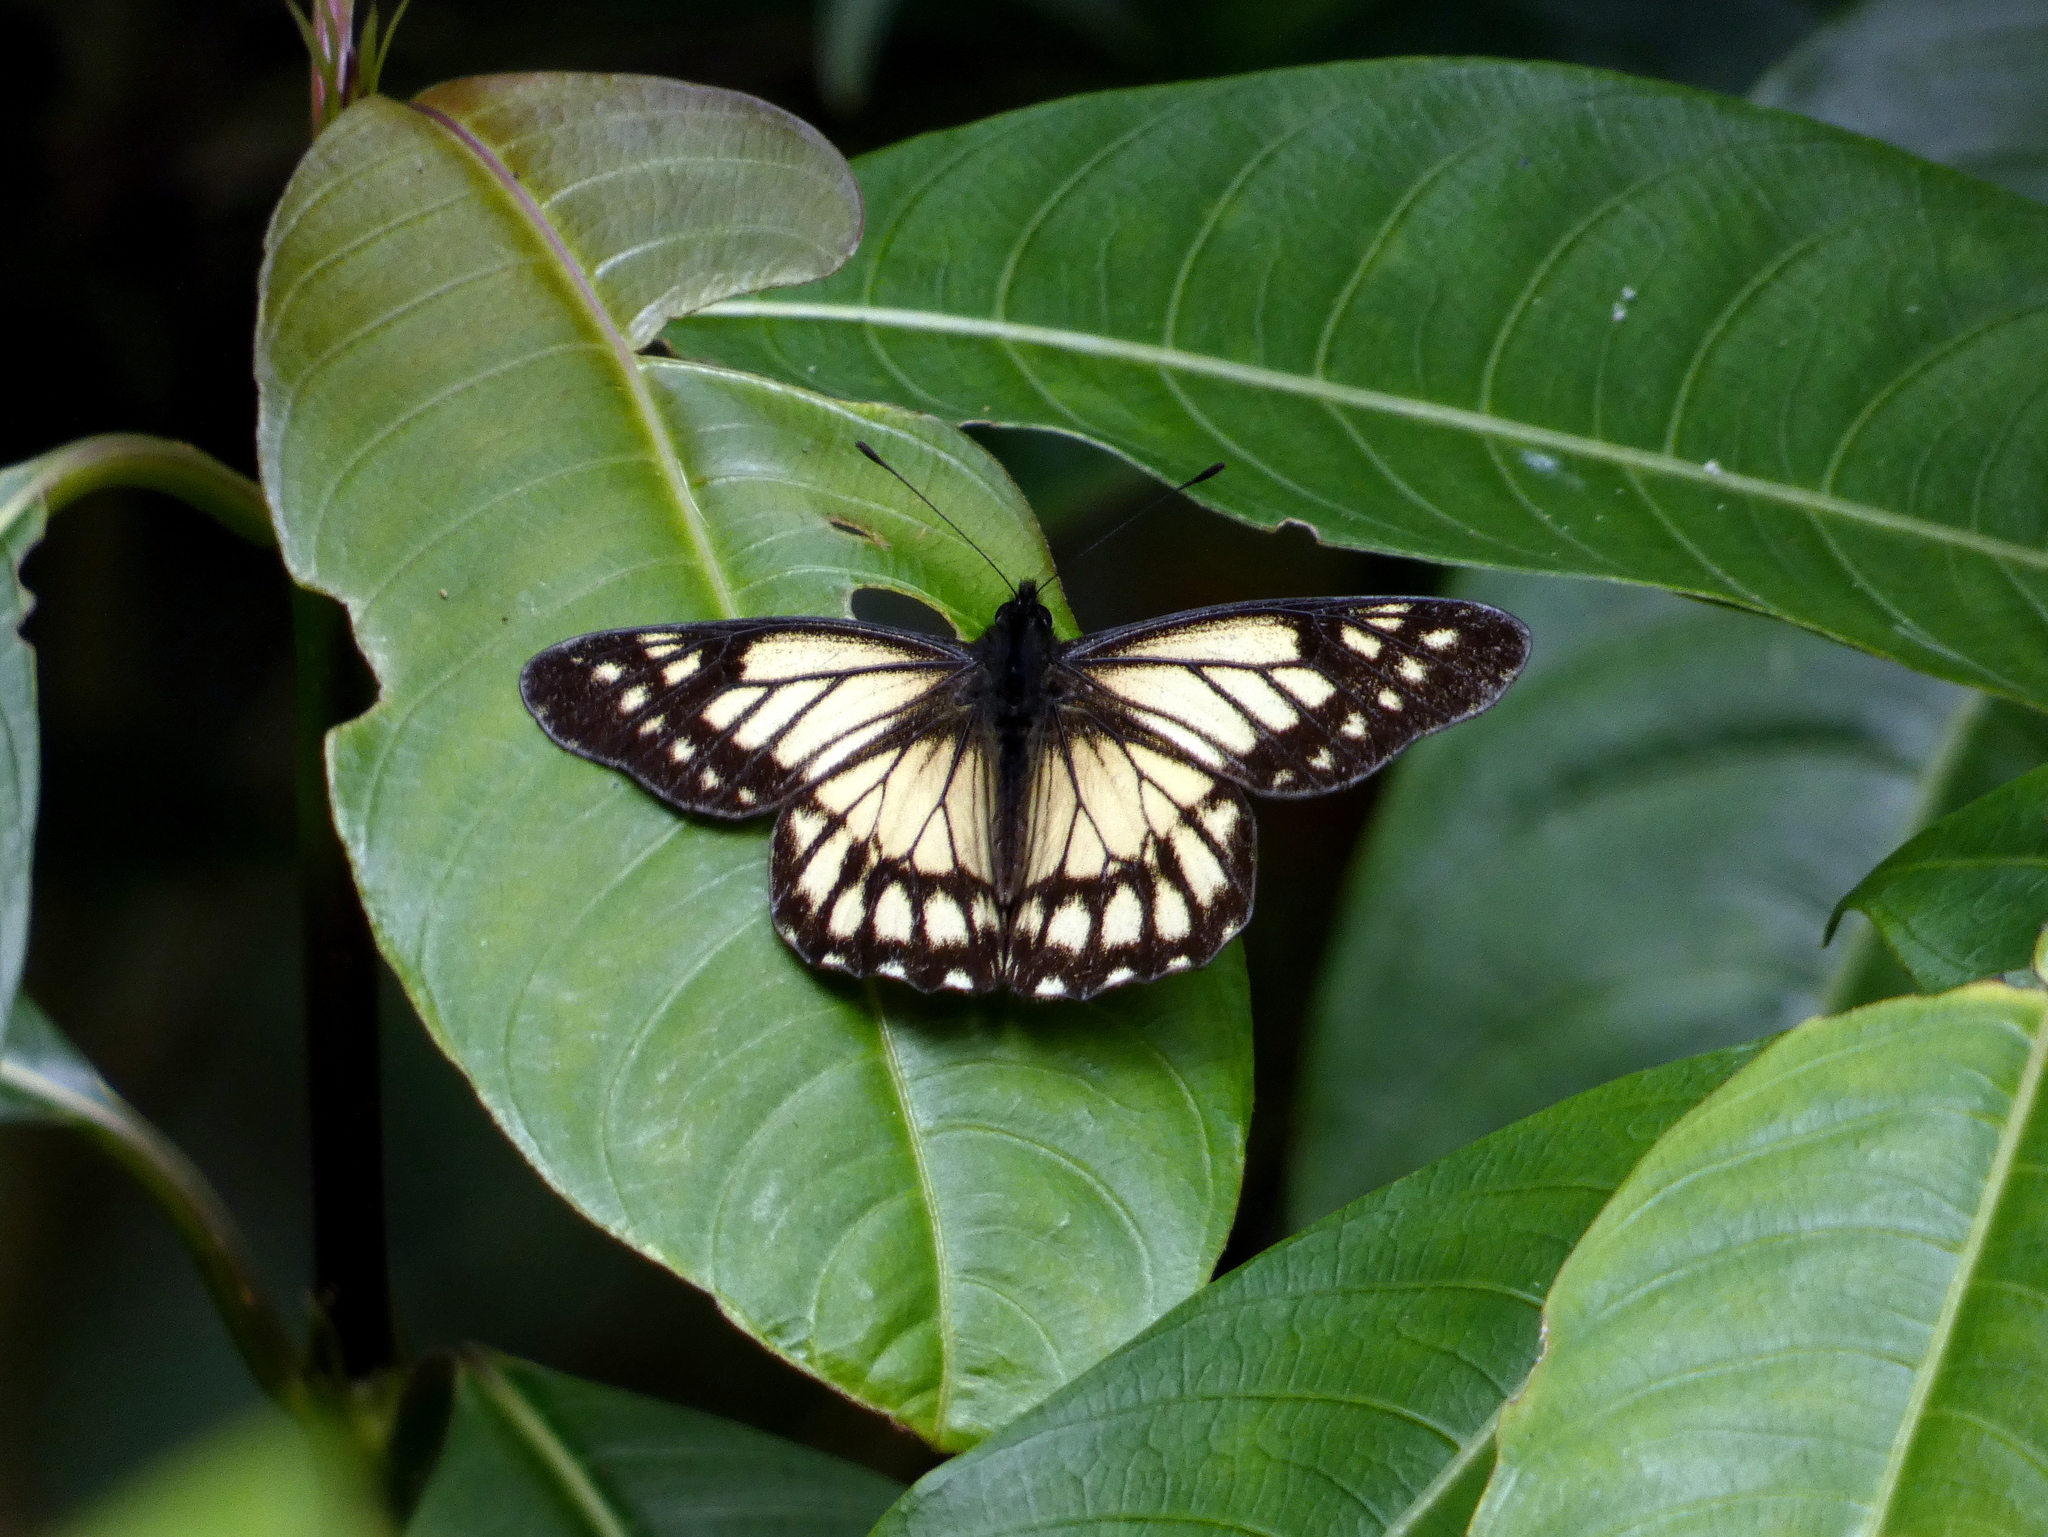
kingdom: Animalia
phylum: Arthropoda
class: Insecta
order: Lepidoptera
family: Pieridae
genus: Archonias
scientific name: Archonias nimbice
